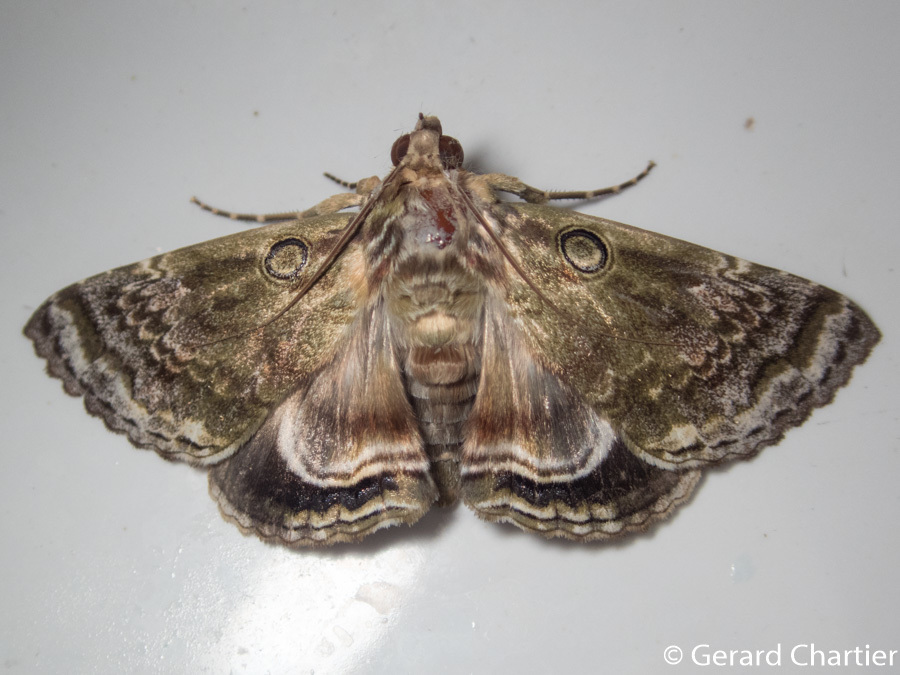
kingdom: Animalia
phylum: Arthropoda
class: Insecta
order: Lepidoptera
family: Erebidae
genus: Cyclodes
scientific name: Cyclodes omma
